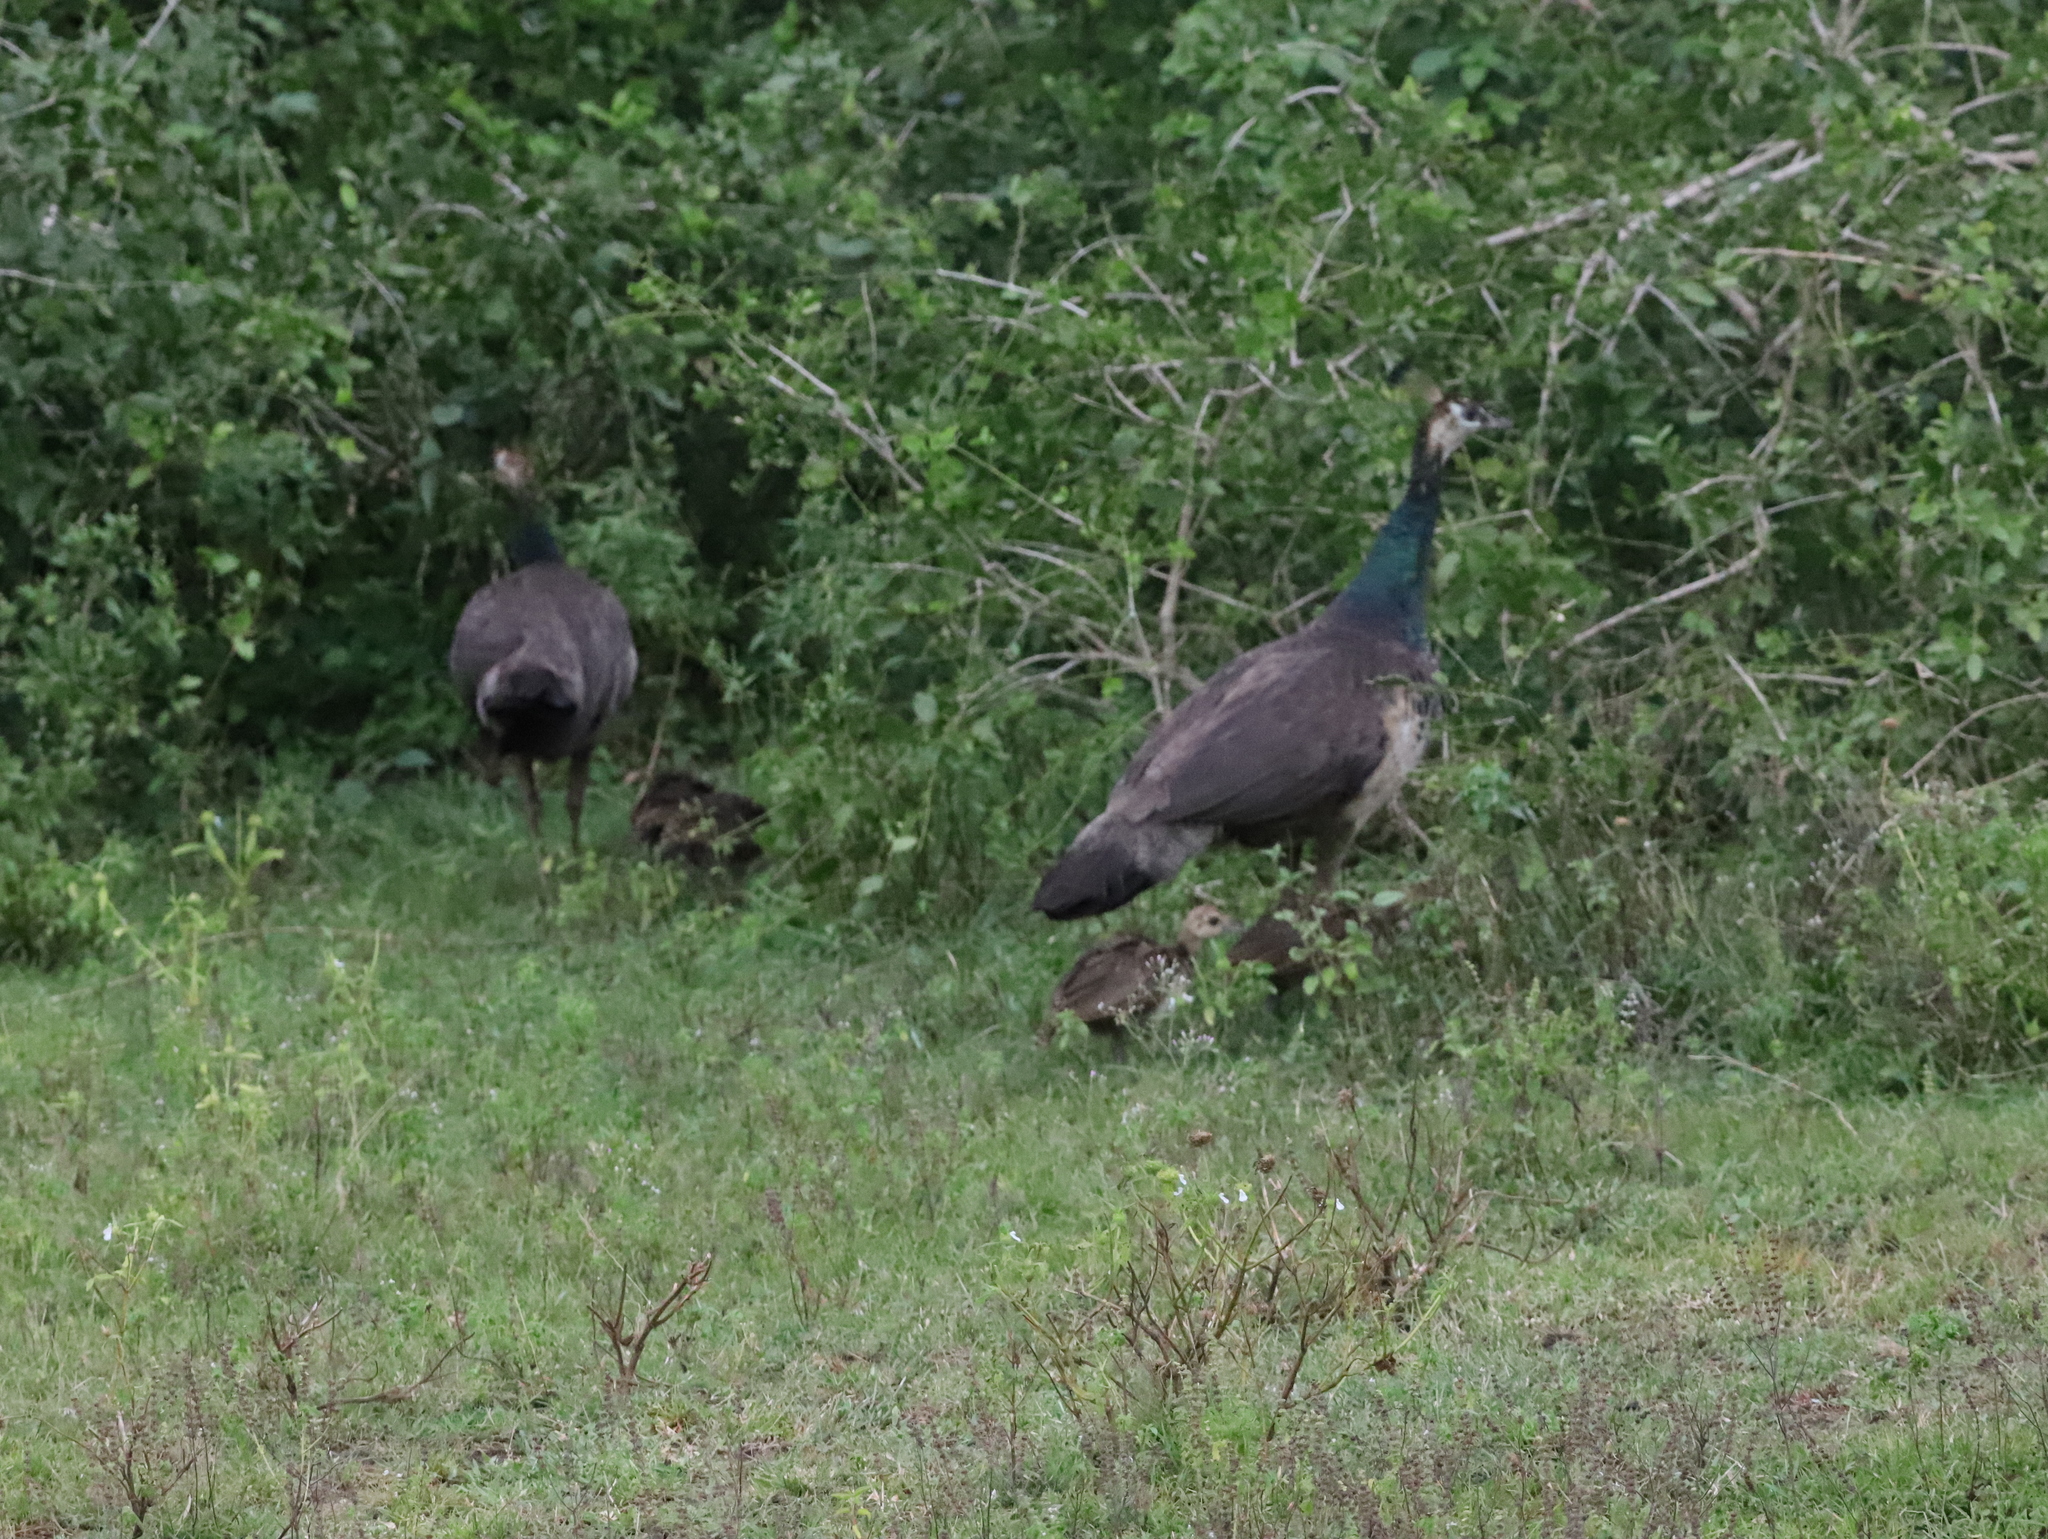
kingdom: Animalia
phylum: Chordata
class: Aves
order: Galliformes
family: Phasianidae
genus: Pavo
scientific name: Pavo cristatus
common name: Indian peafowl
